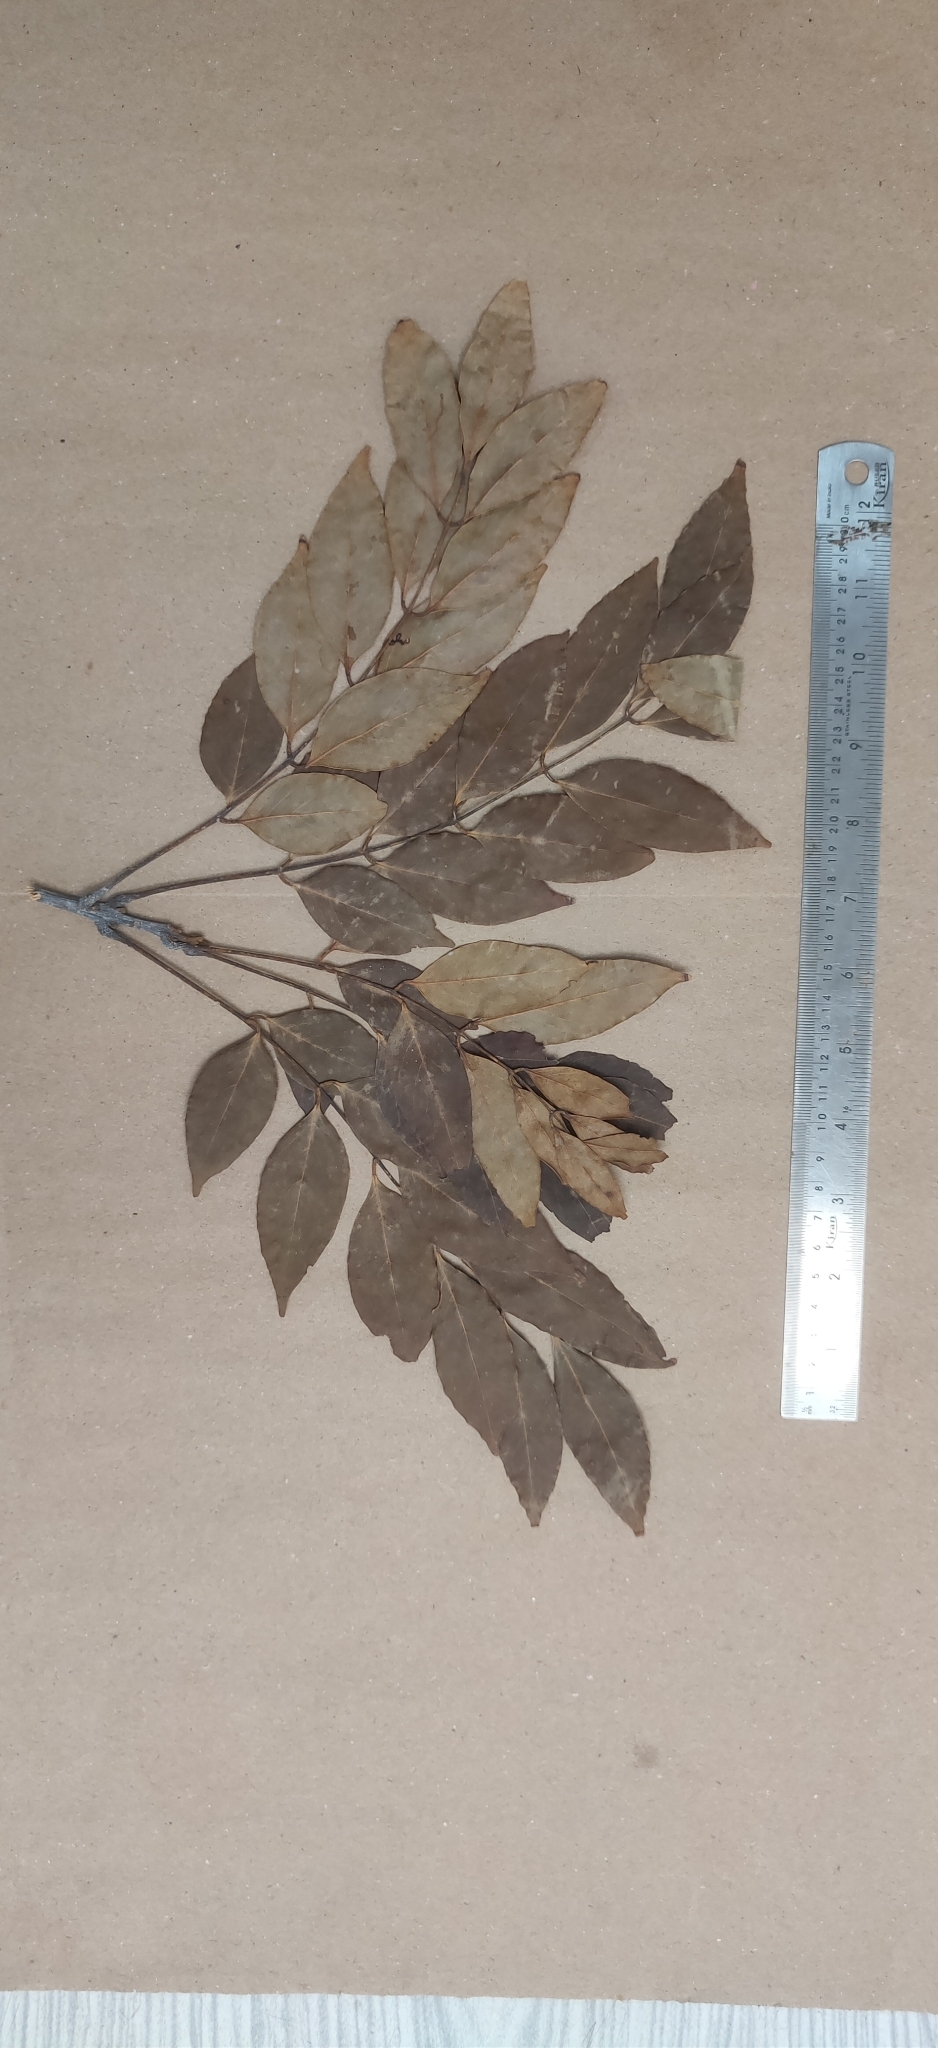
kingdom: Plantae
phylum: Tracheophyta
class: Magnoliopsida
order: Fabales
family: Fabaceae
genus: Ormosia
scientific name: Ormosia travancorica
